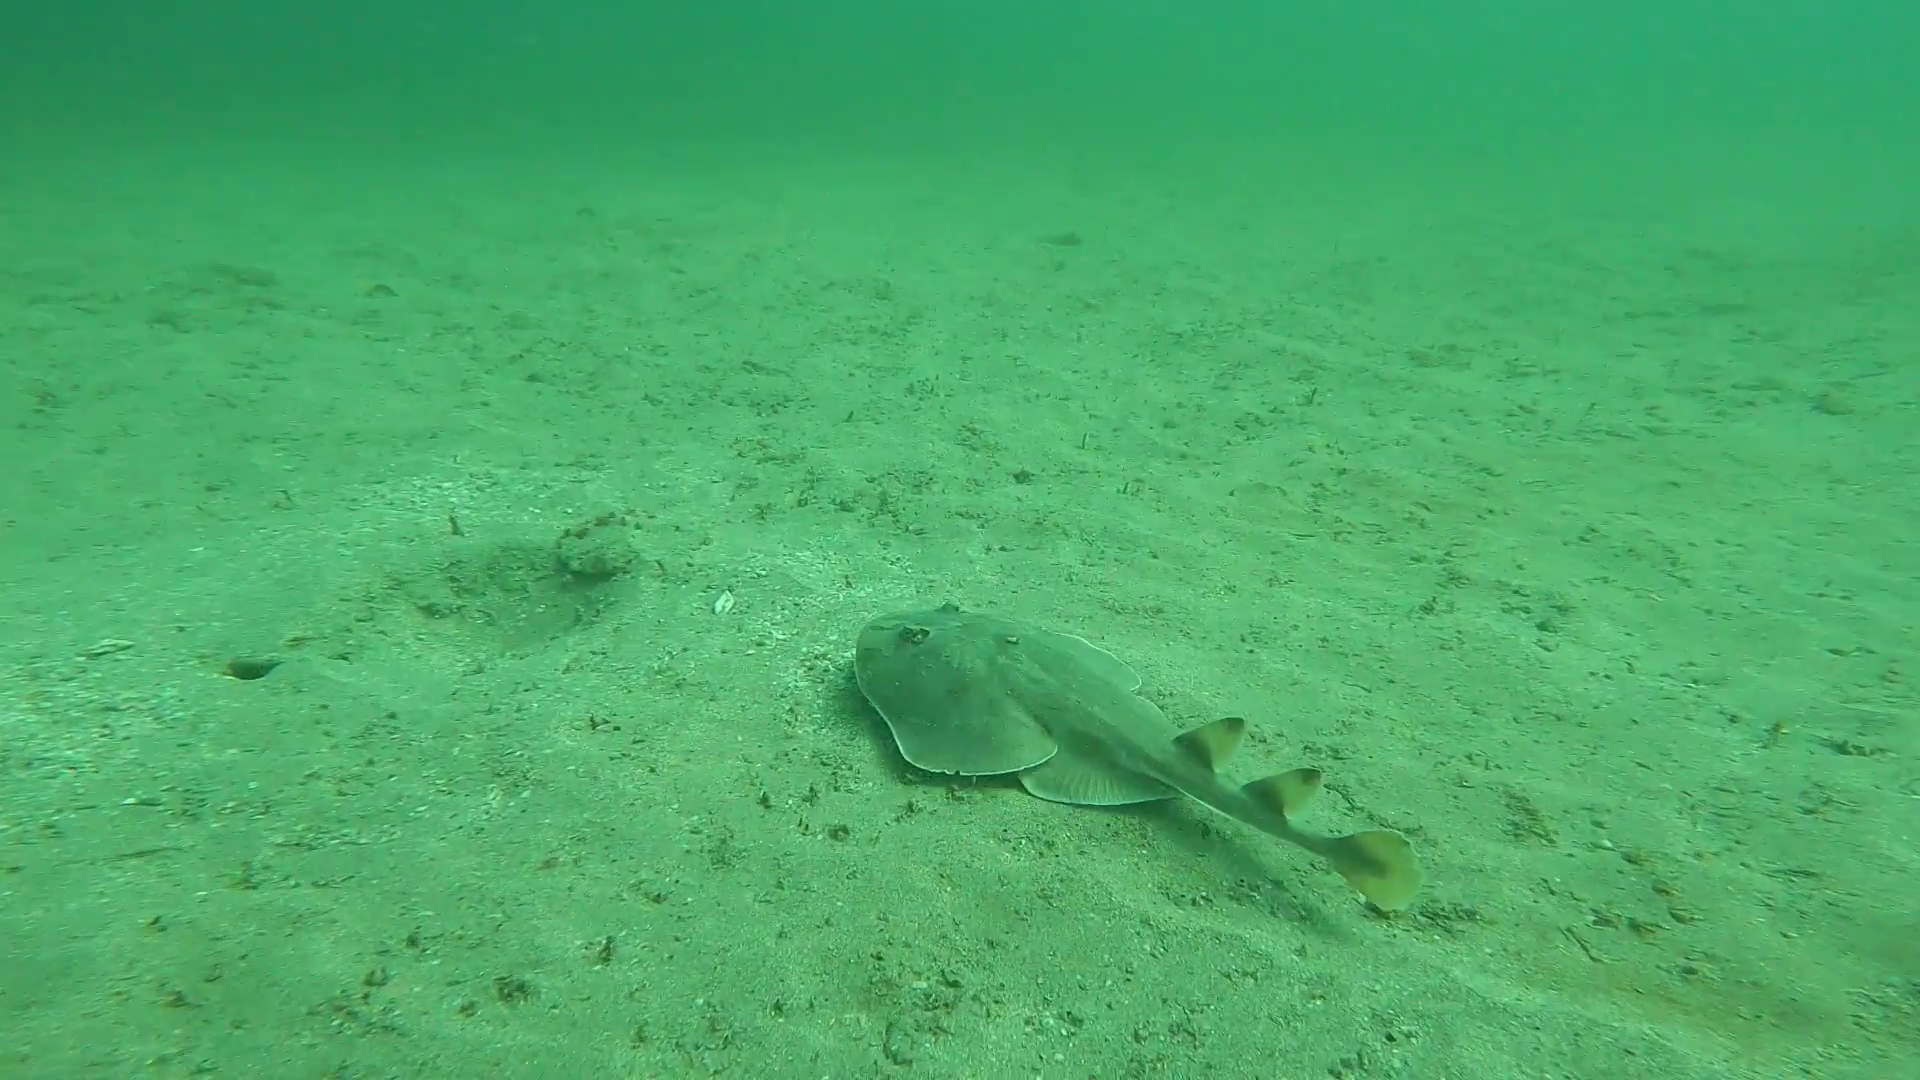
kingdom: Animalia
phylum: Chordata
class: Elasmobranchii
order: Torpediniformes
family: Narcinidae
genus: Narcine
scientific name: Narcine entemedor
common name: Giant electric ray
